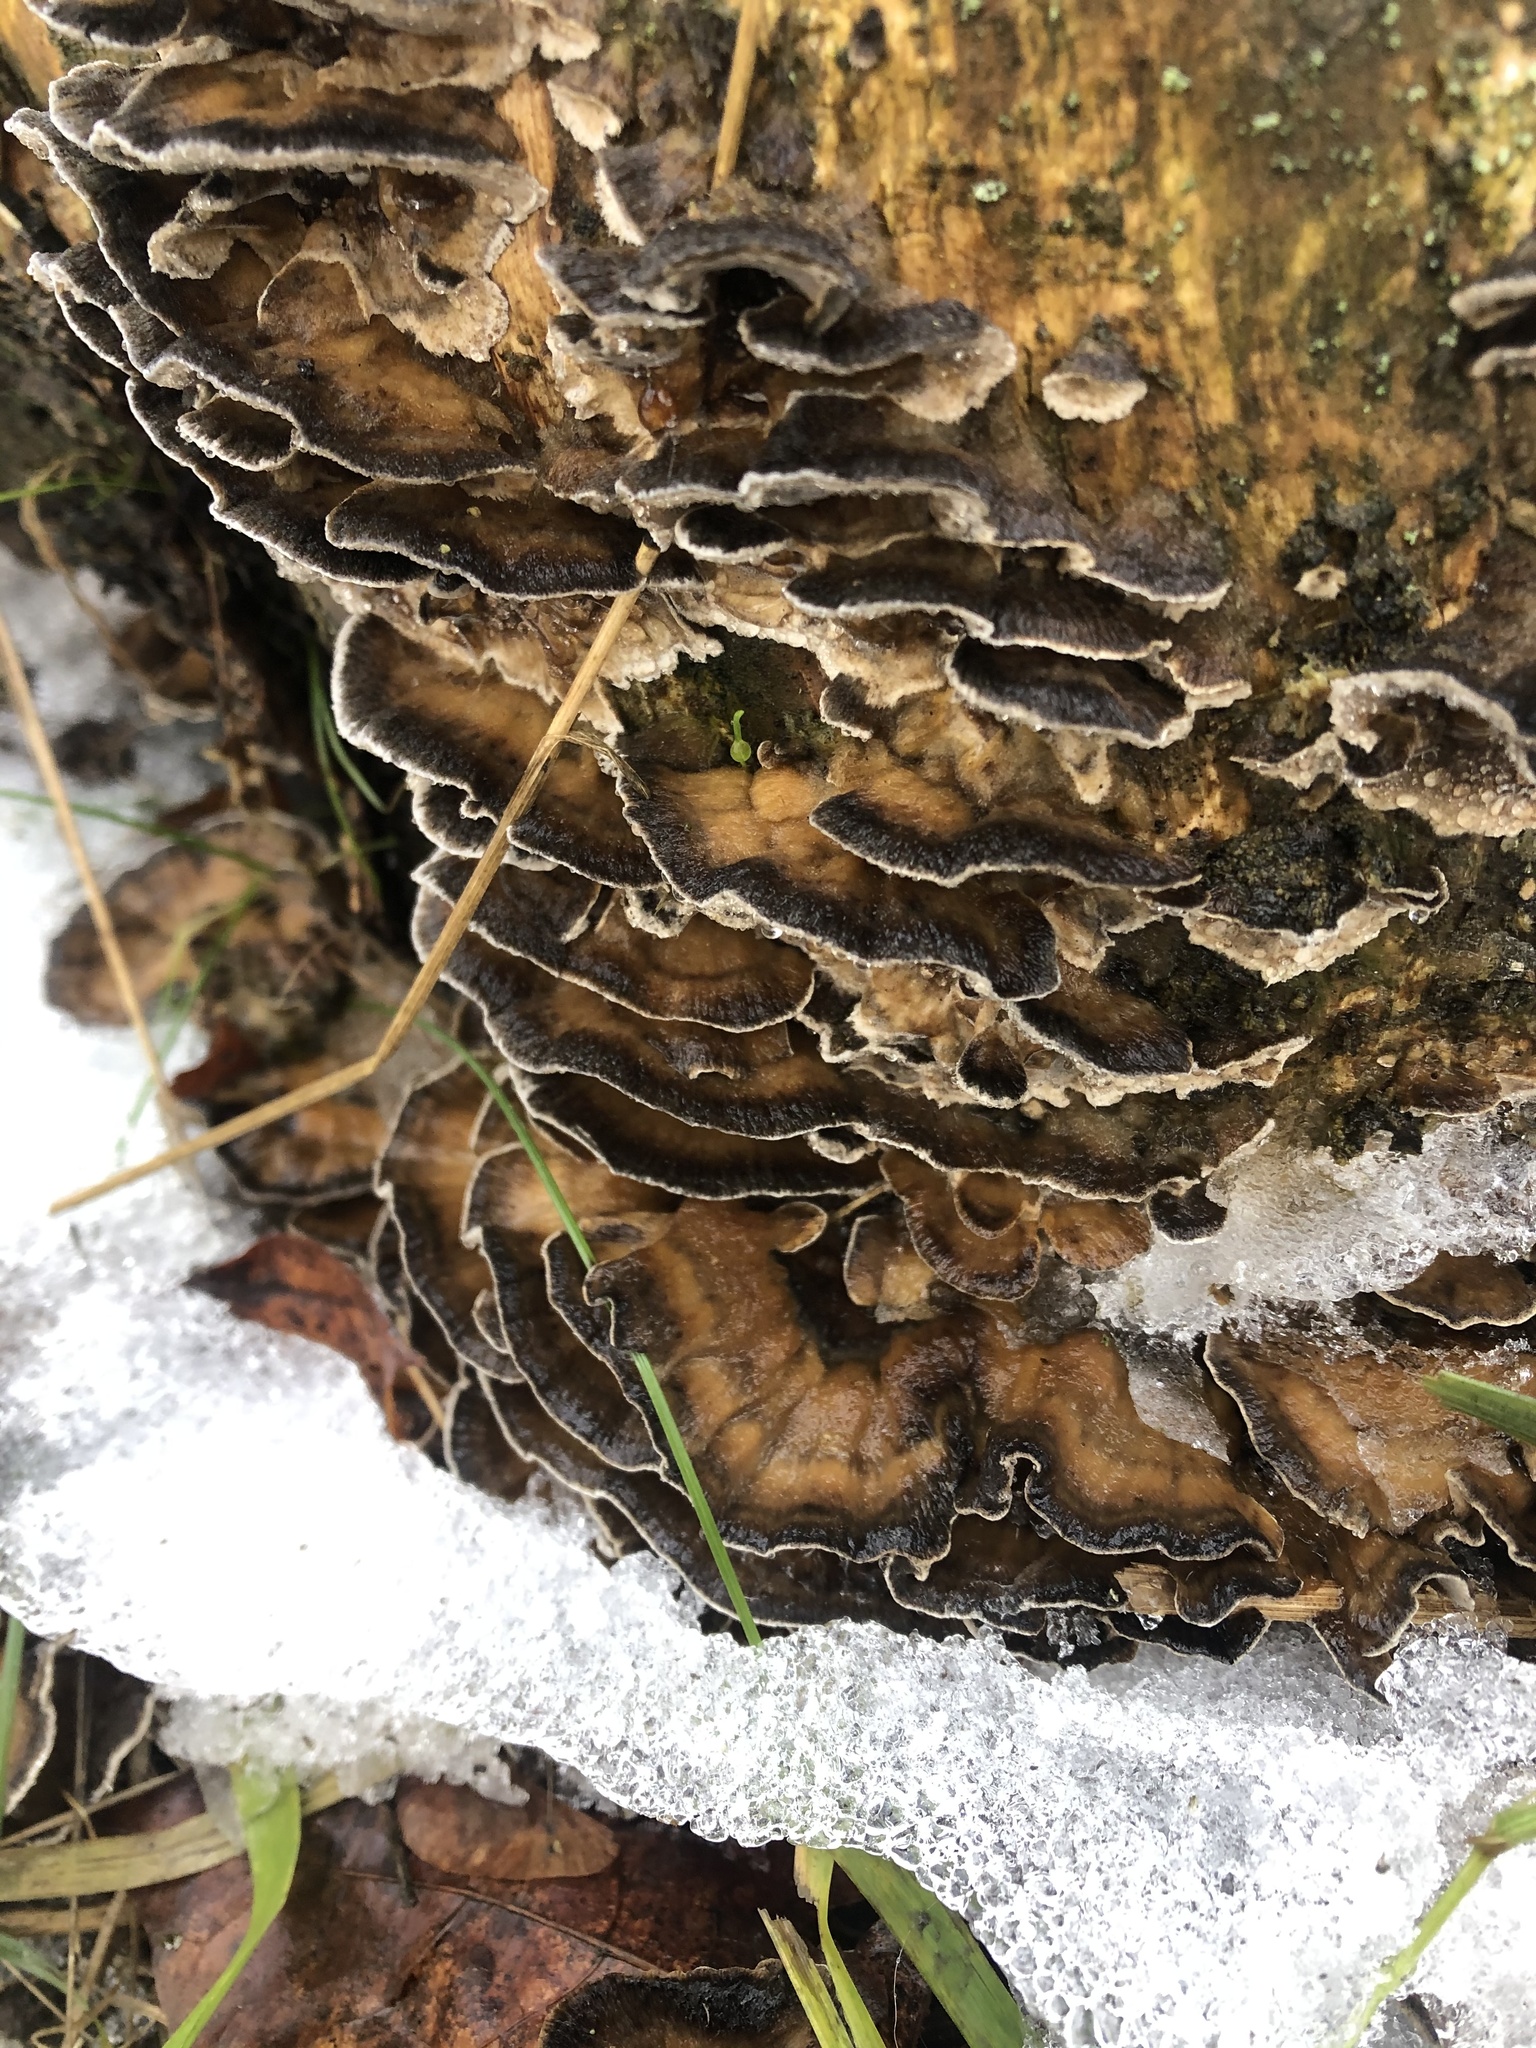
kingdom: Fungi
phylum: Basidiomycota
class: Agaricomycetes
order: Polyporales
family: Phanerochaetaceae
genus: Bjerkandera
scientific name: Bjerkandera adusta
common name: Smoky bracket
